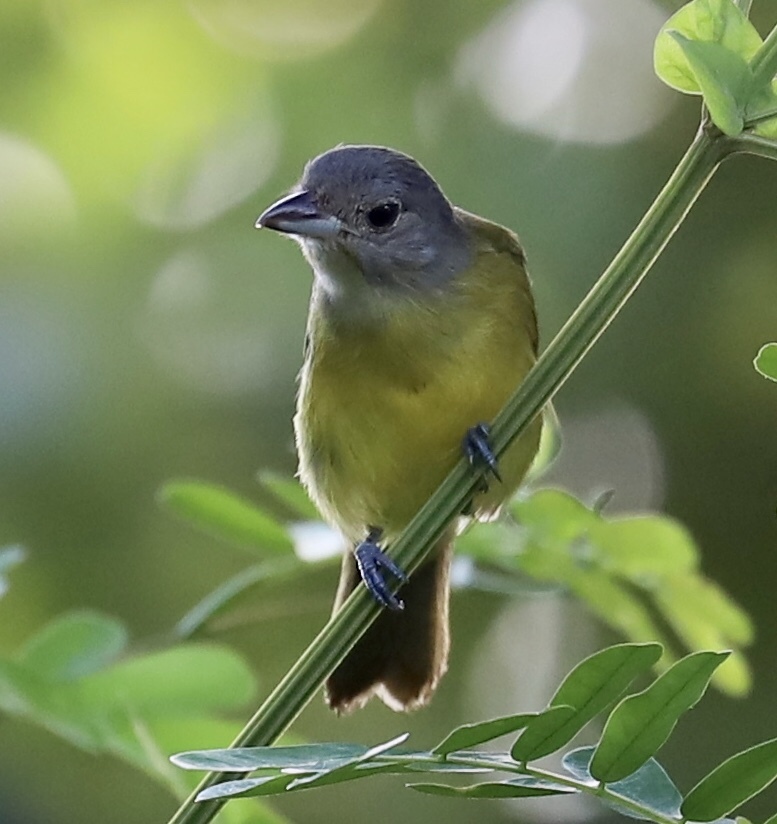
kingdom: Animalia
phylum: Chordata
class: Aves
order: Passeriformes
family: Thraupidae
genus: Loriotus
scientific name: Loriotus luctuosus
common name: White-shouldered tanager
